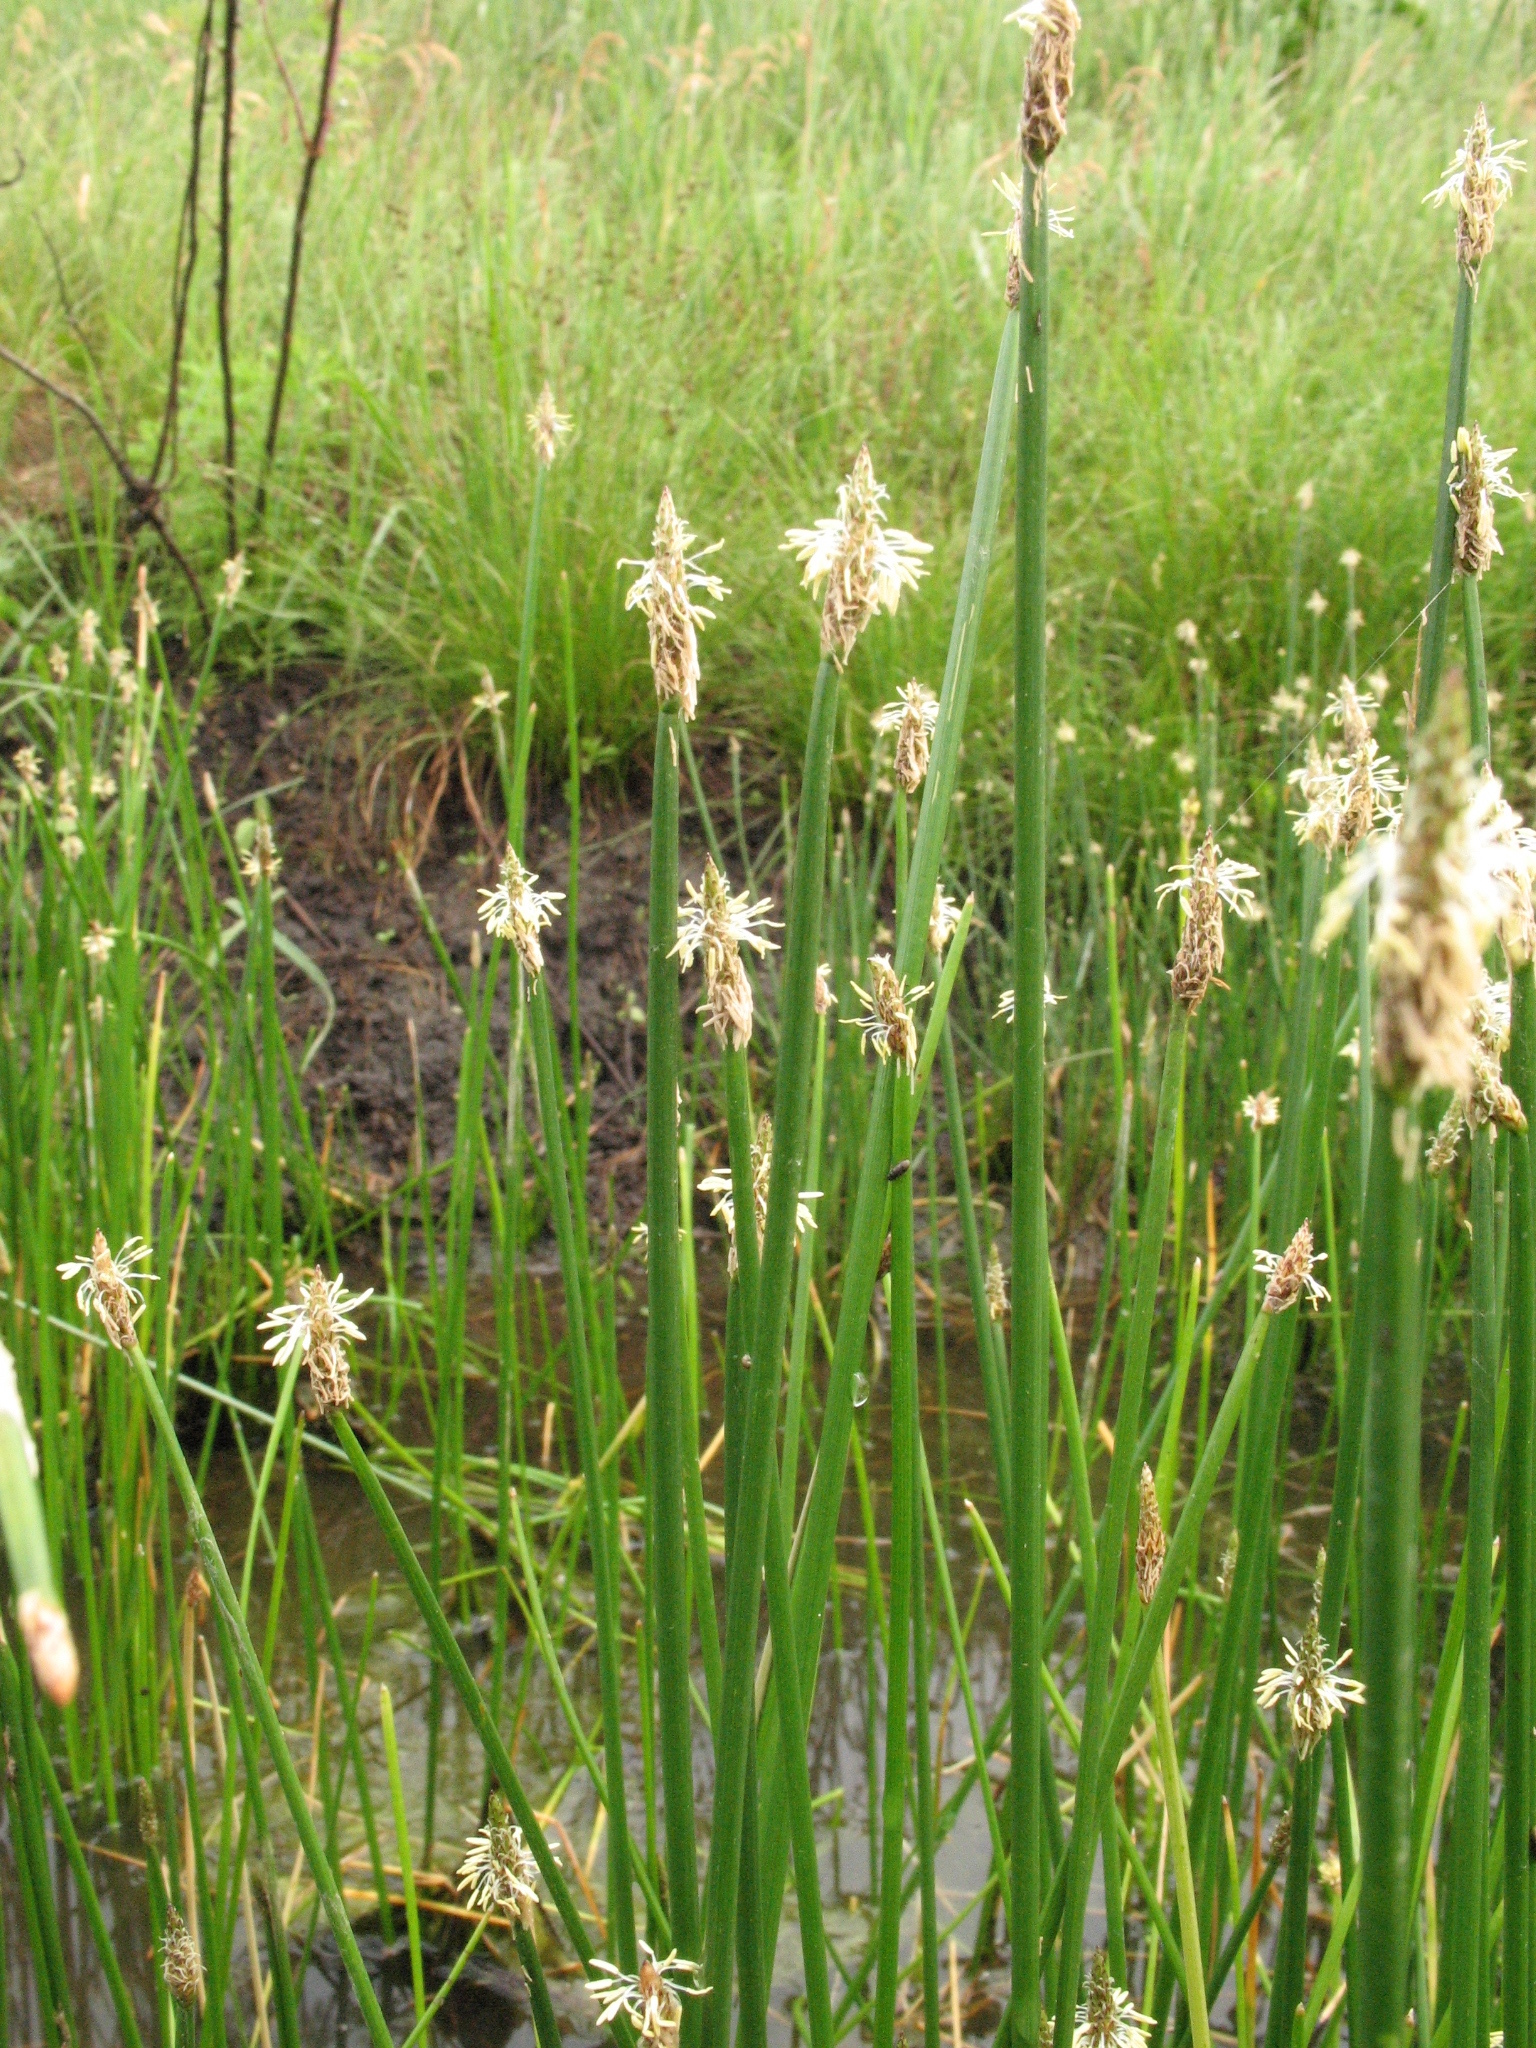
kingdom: Plantae
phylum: Tracheophyta
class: Liliopsida
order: Poales
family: Cyperaceae
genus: Eleocharis
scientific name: Eleocharis palustris
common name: Common spike-rush
